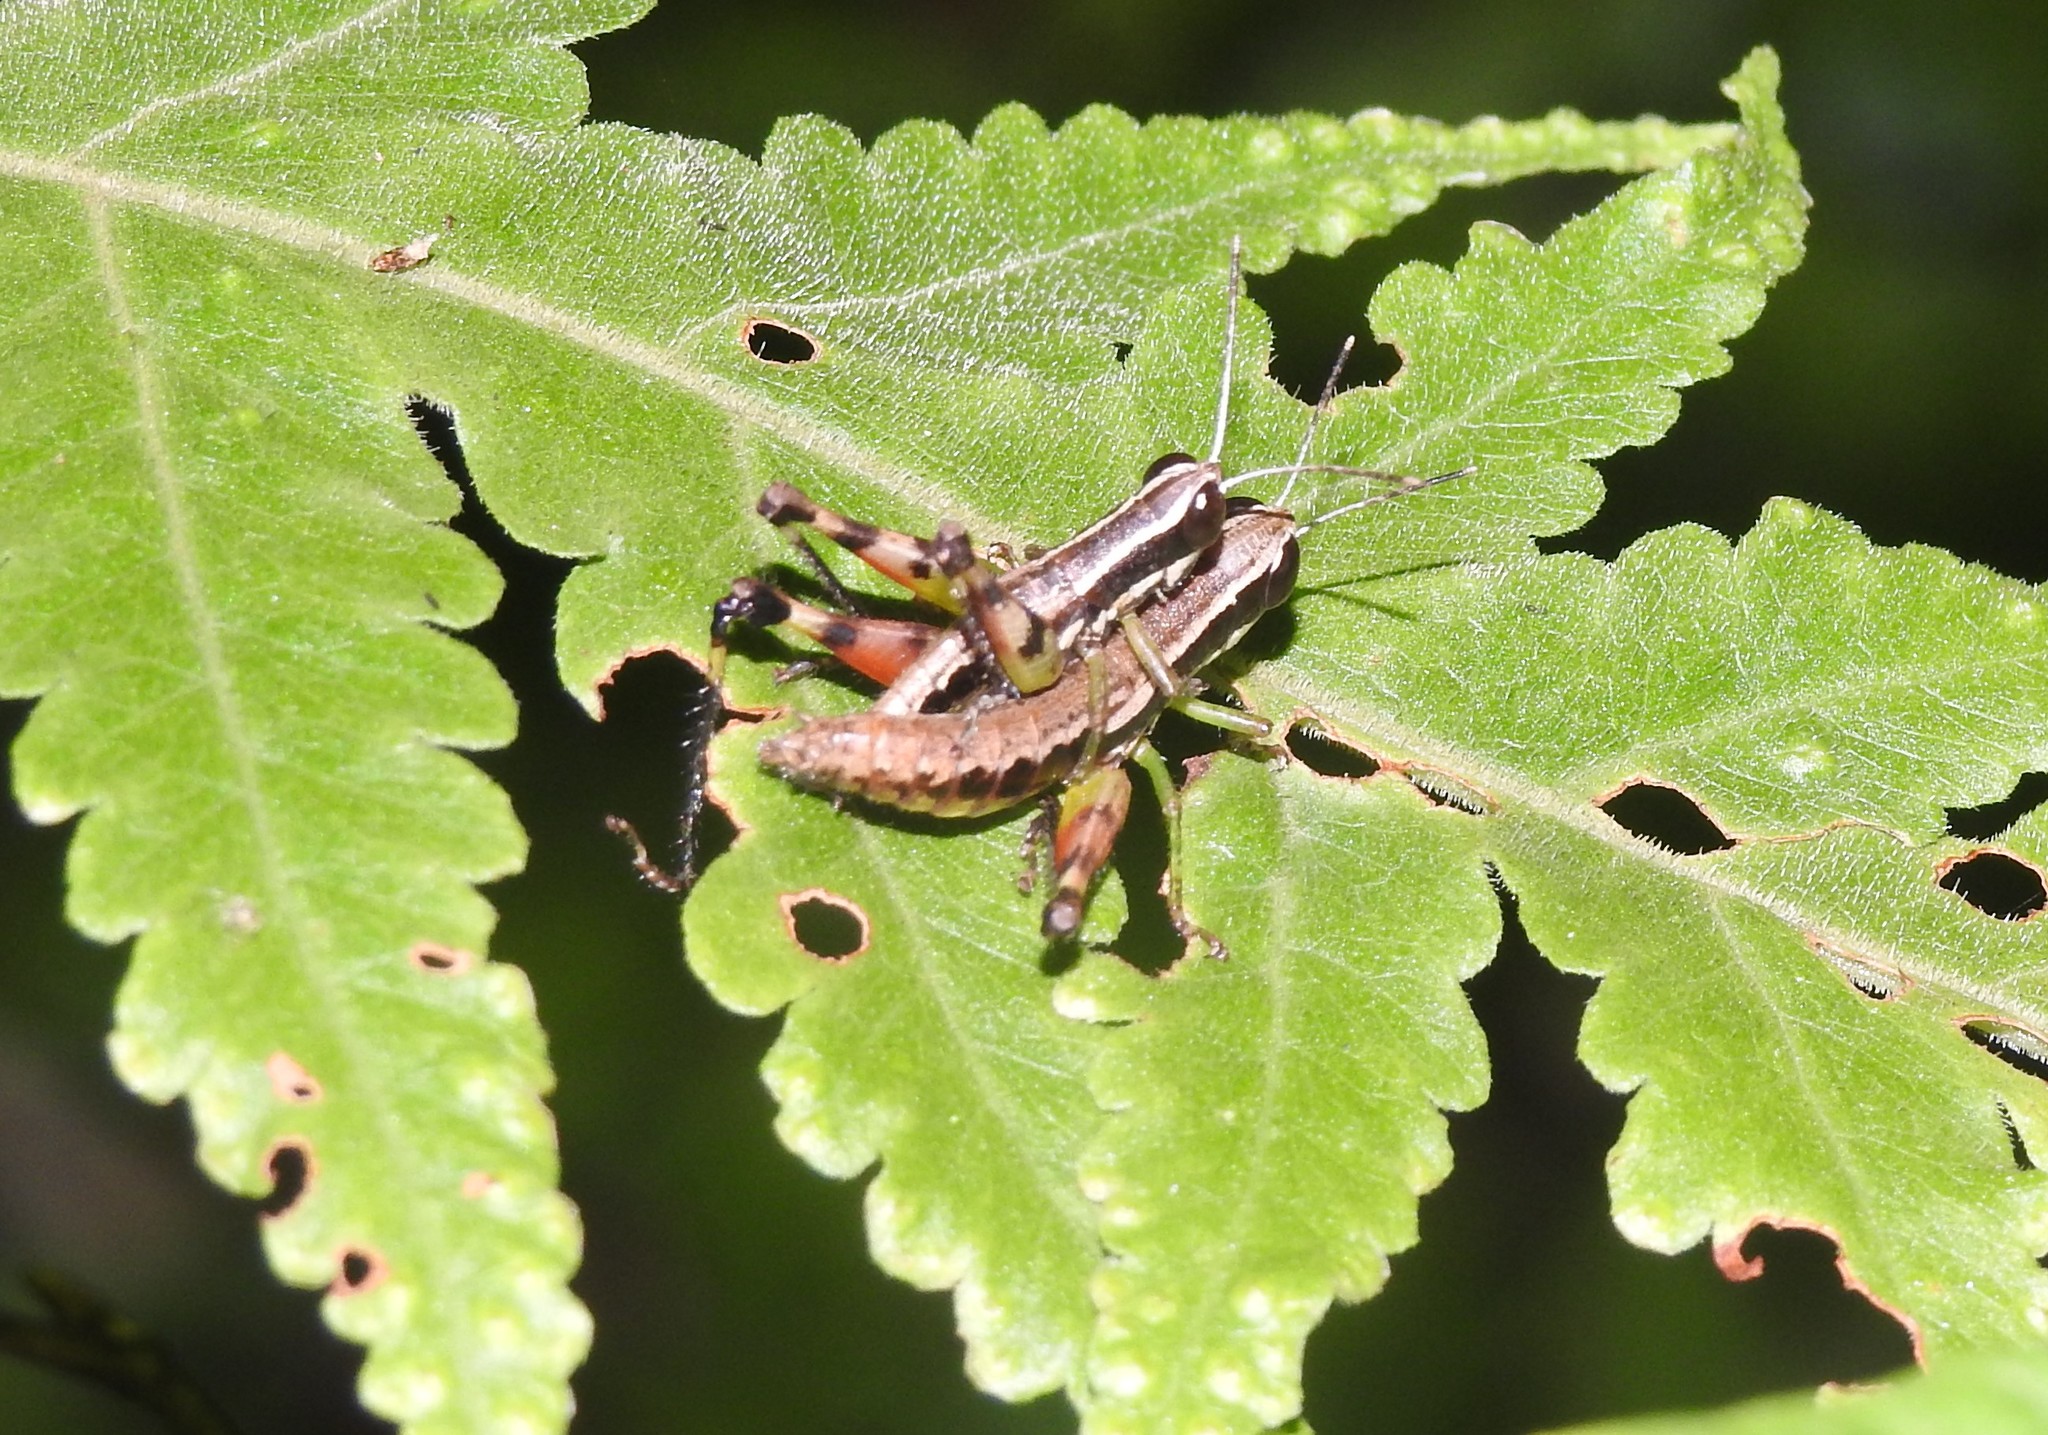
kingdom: Animalia
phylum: Arthropoda
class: Insecta
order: Orthoptera
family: Acrididae
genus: Chitaura
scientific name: Chitaura indica
